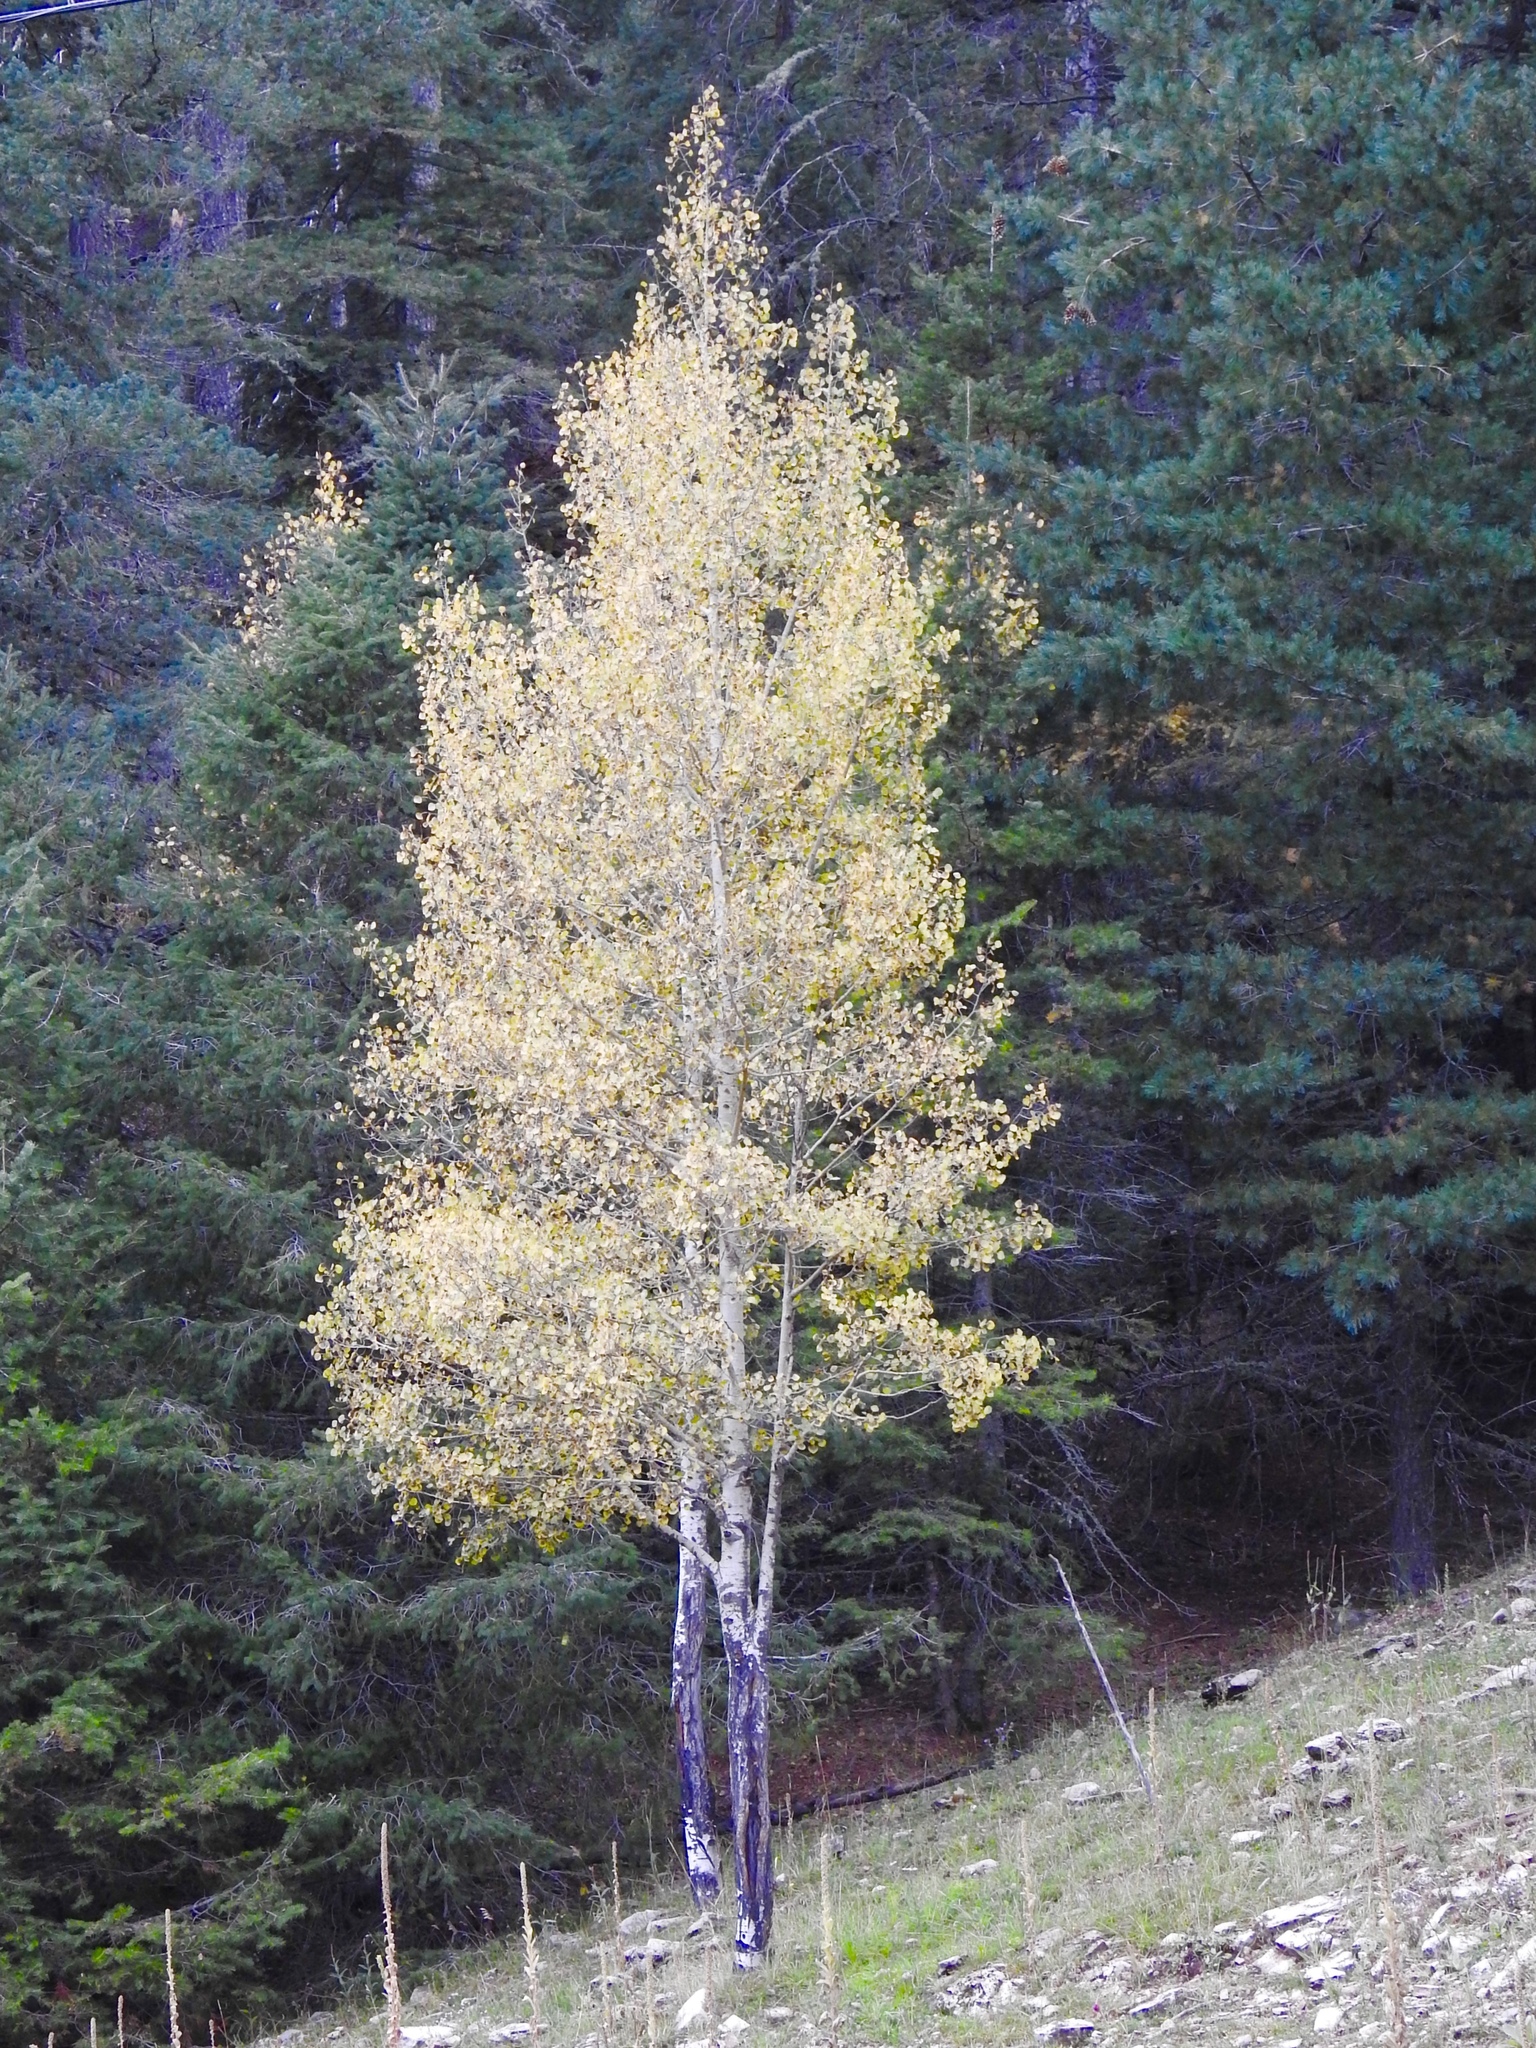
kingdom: Plantae
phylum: Tracheophyta
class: Magnoliopsida
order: Malpighiales
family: Salicaceae
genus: Populus
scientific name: Populus tremuloides
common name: Quaking aspen
